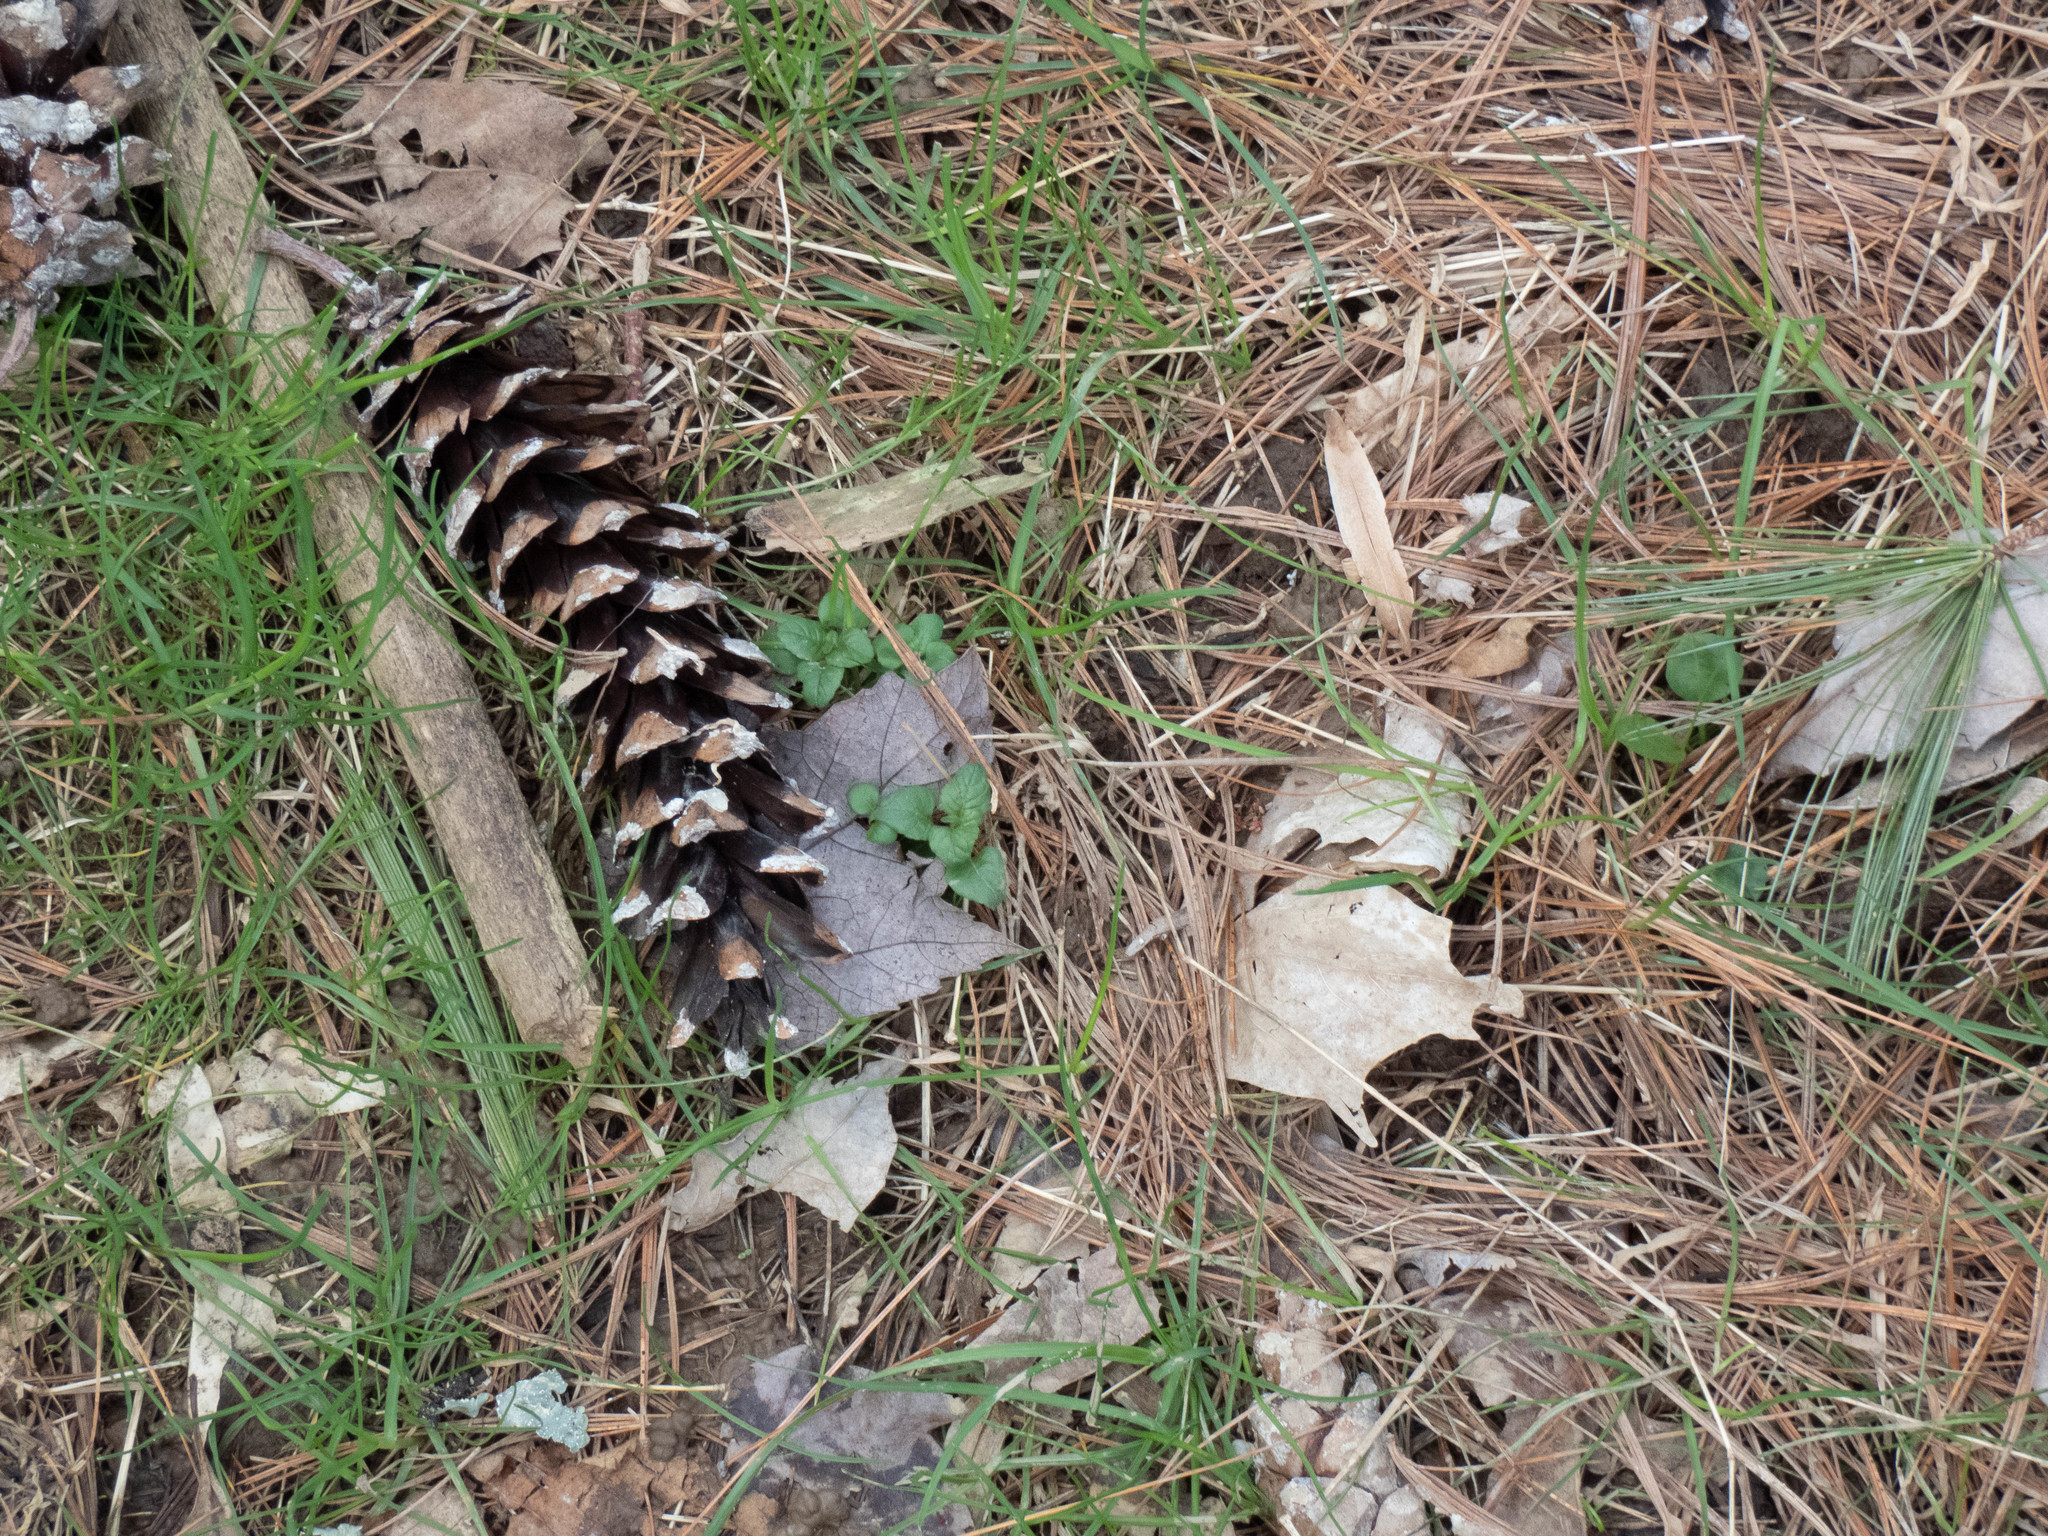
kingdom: Plantae
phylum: Tracheophyta
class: Pinopsida
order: Pinales
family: Pinaceae
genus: Pinus
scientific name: Pinus strobus
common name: Weymouth pine
